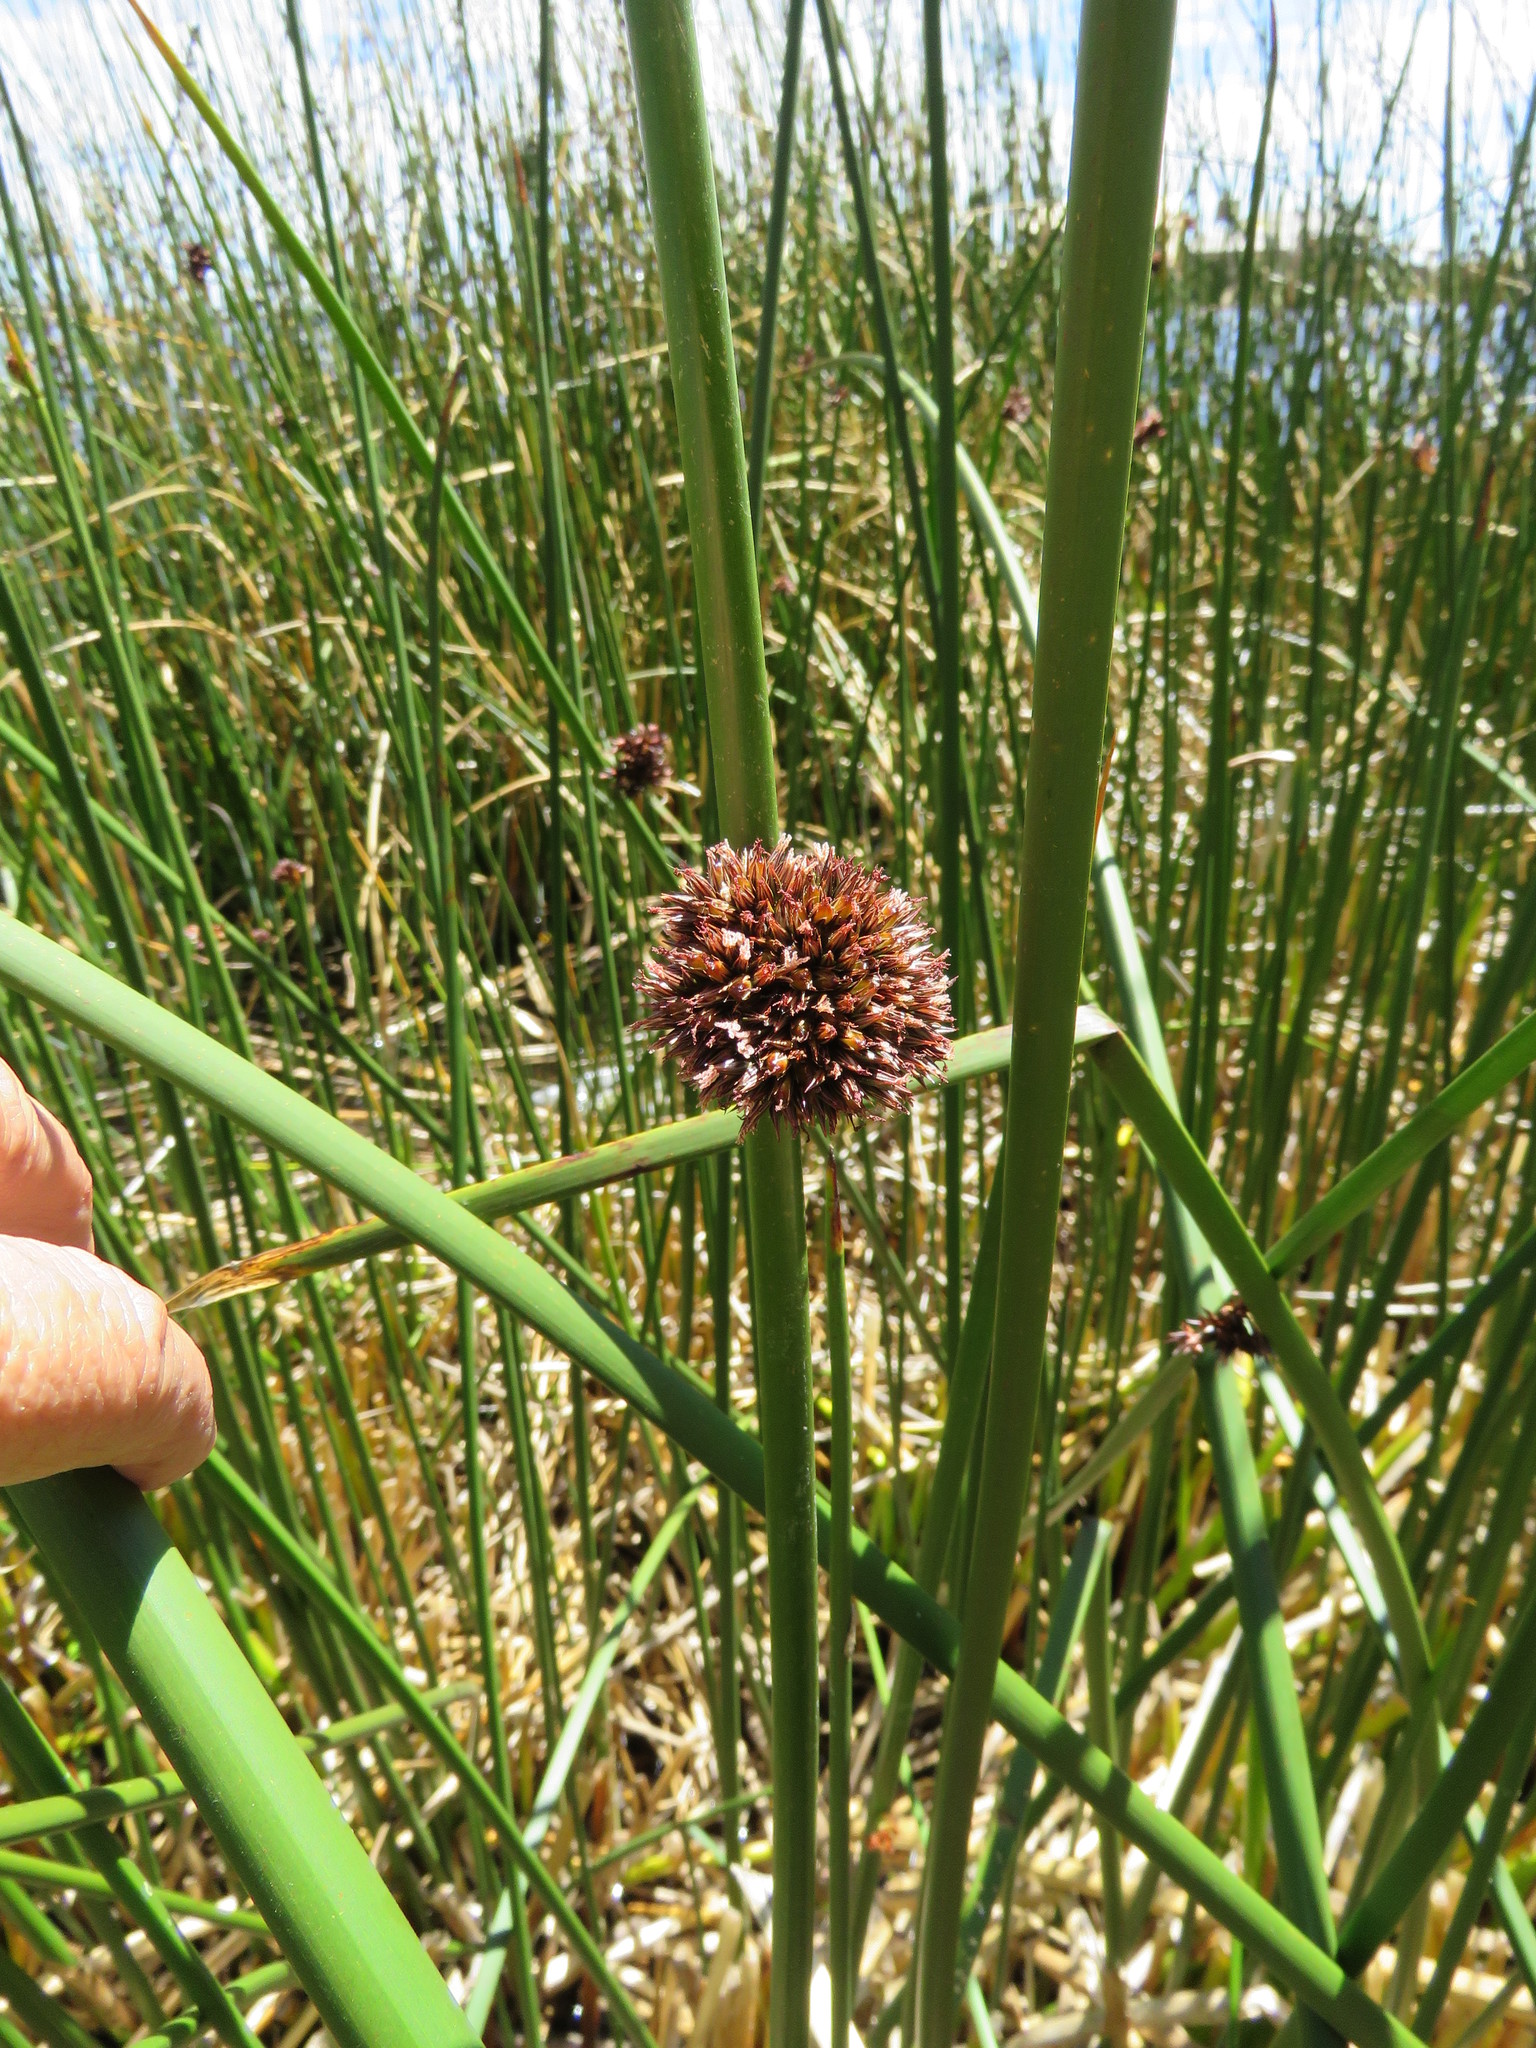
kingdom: Plantae
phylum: Tracheophyta
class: Liliopsida
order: Poales
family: Cyperaceae
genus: Schoenoplectus
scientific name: Schoenoplectus californicus
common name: California bulrush
